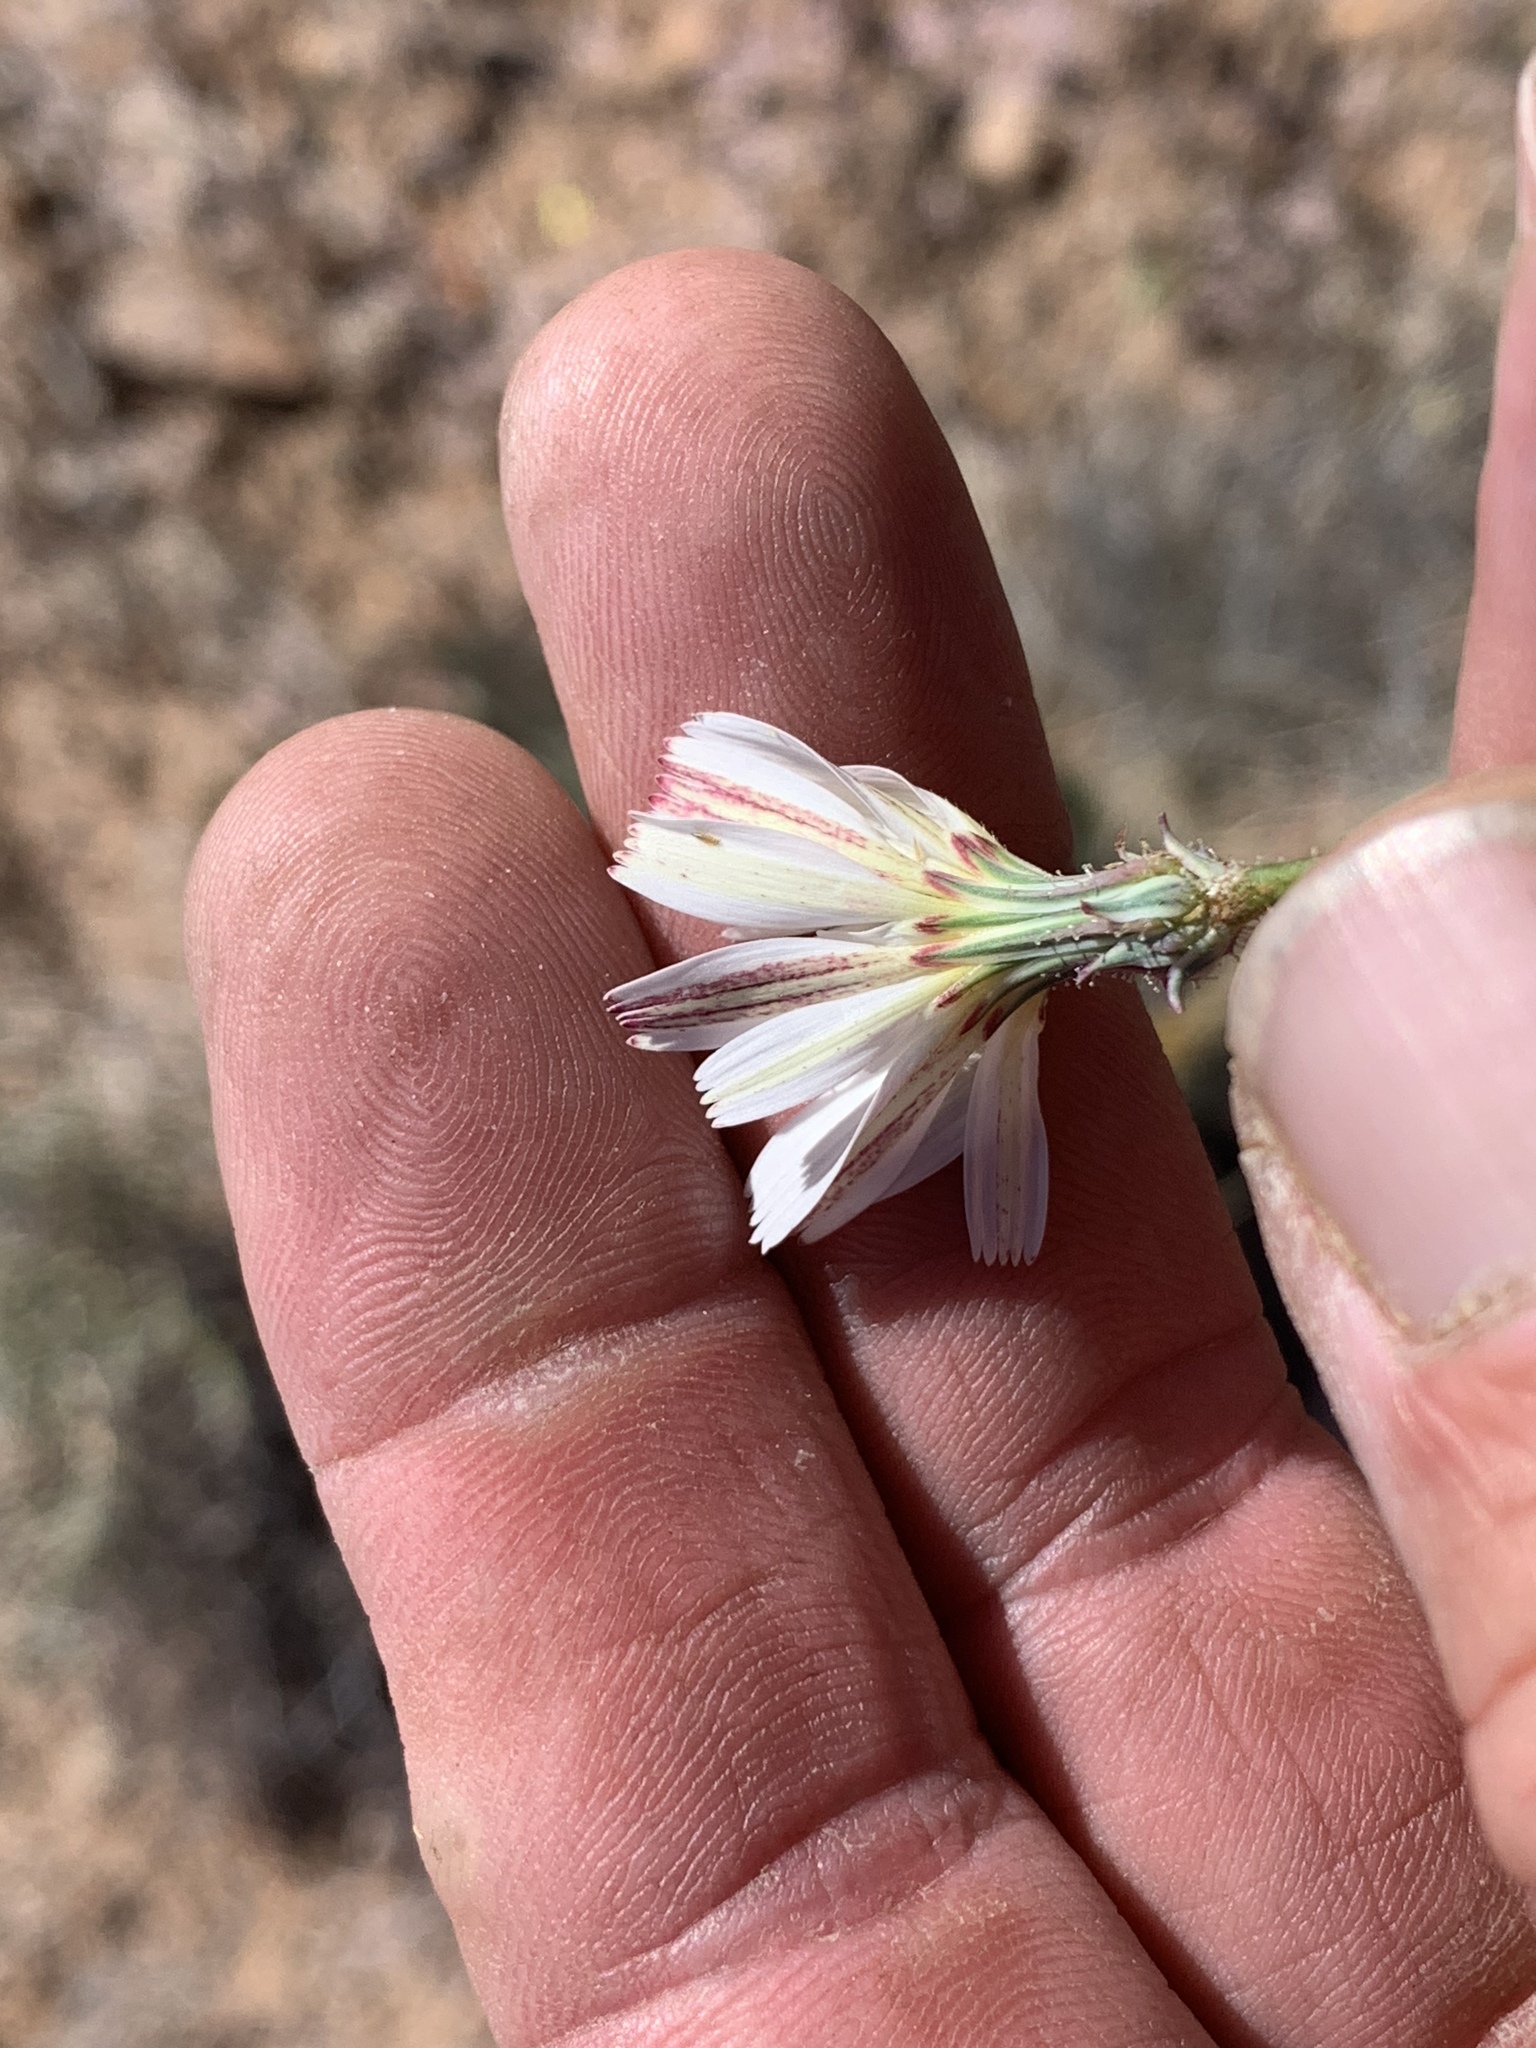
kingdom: Plantae
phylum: Tracheophyta
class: Magnoliopsida
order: Asterales
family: Asteraceae
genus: Rafinesquia
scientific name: Rafinesquia neomexicana
